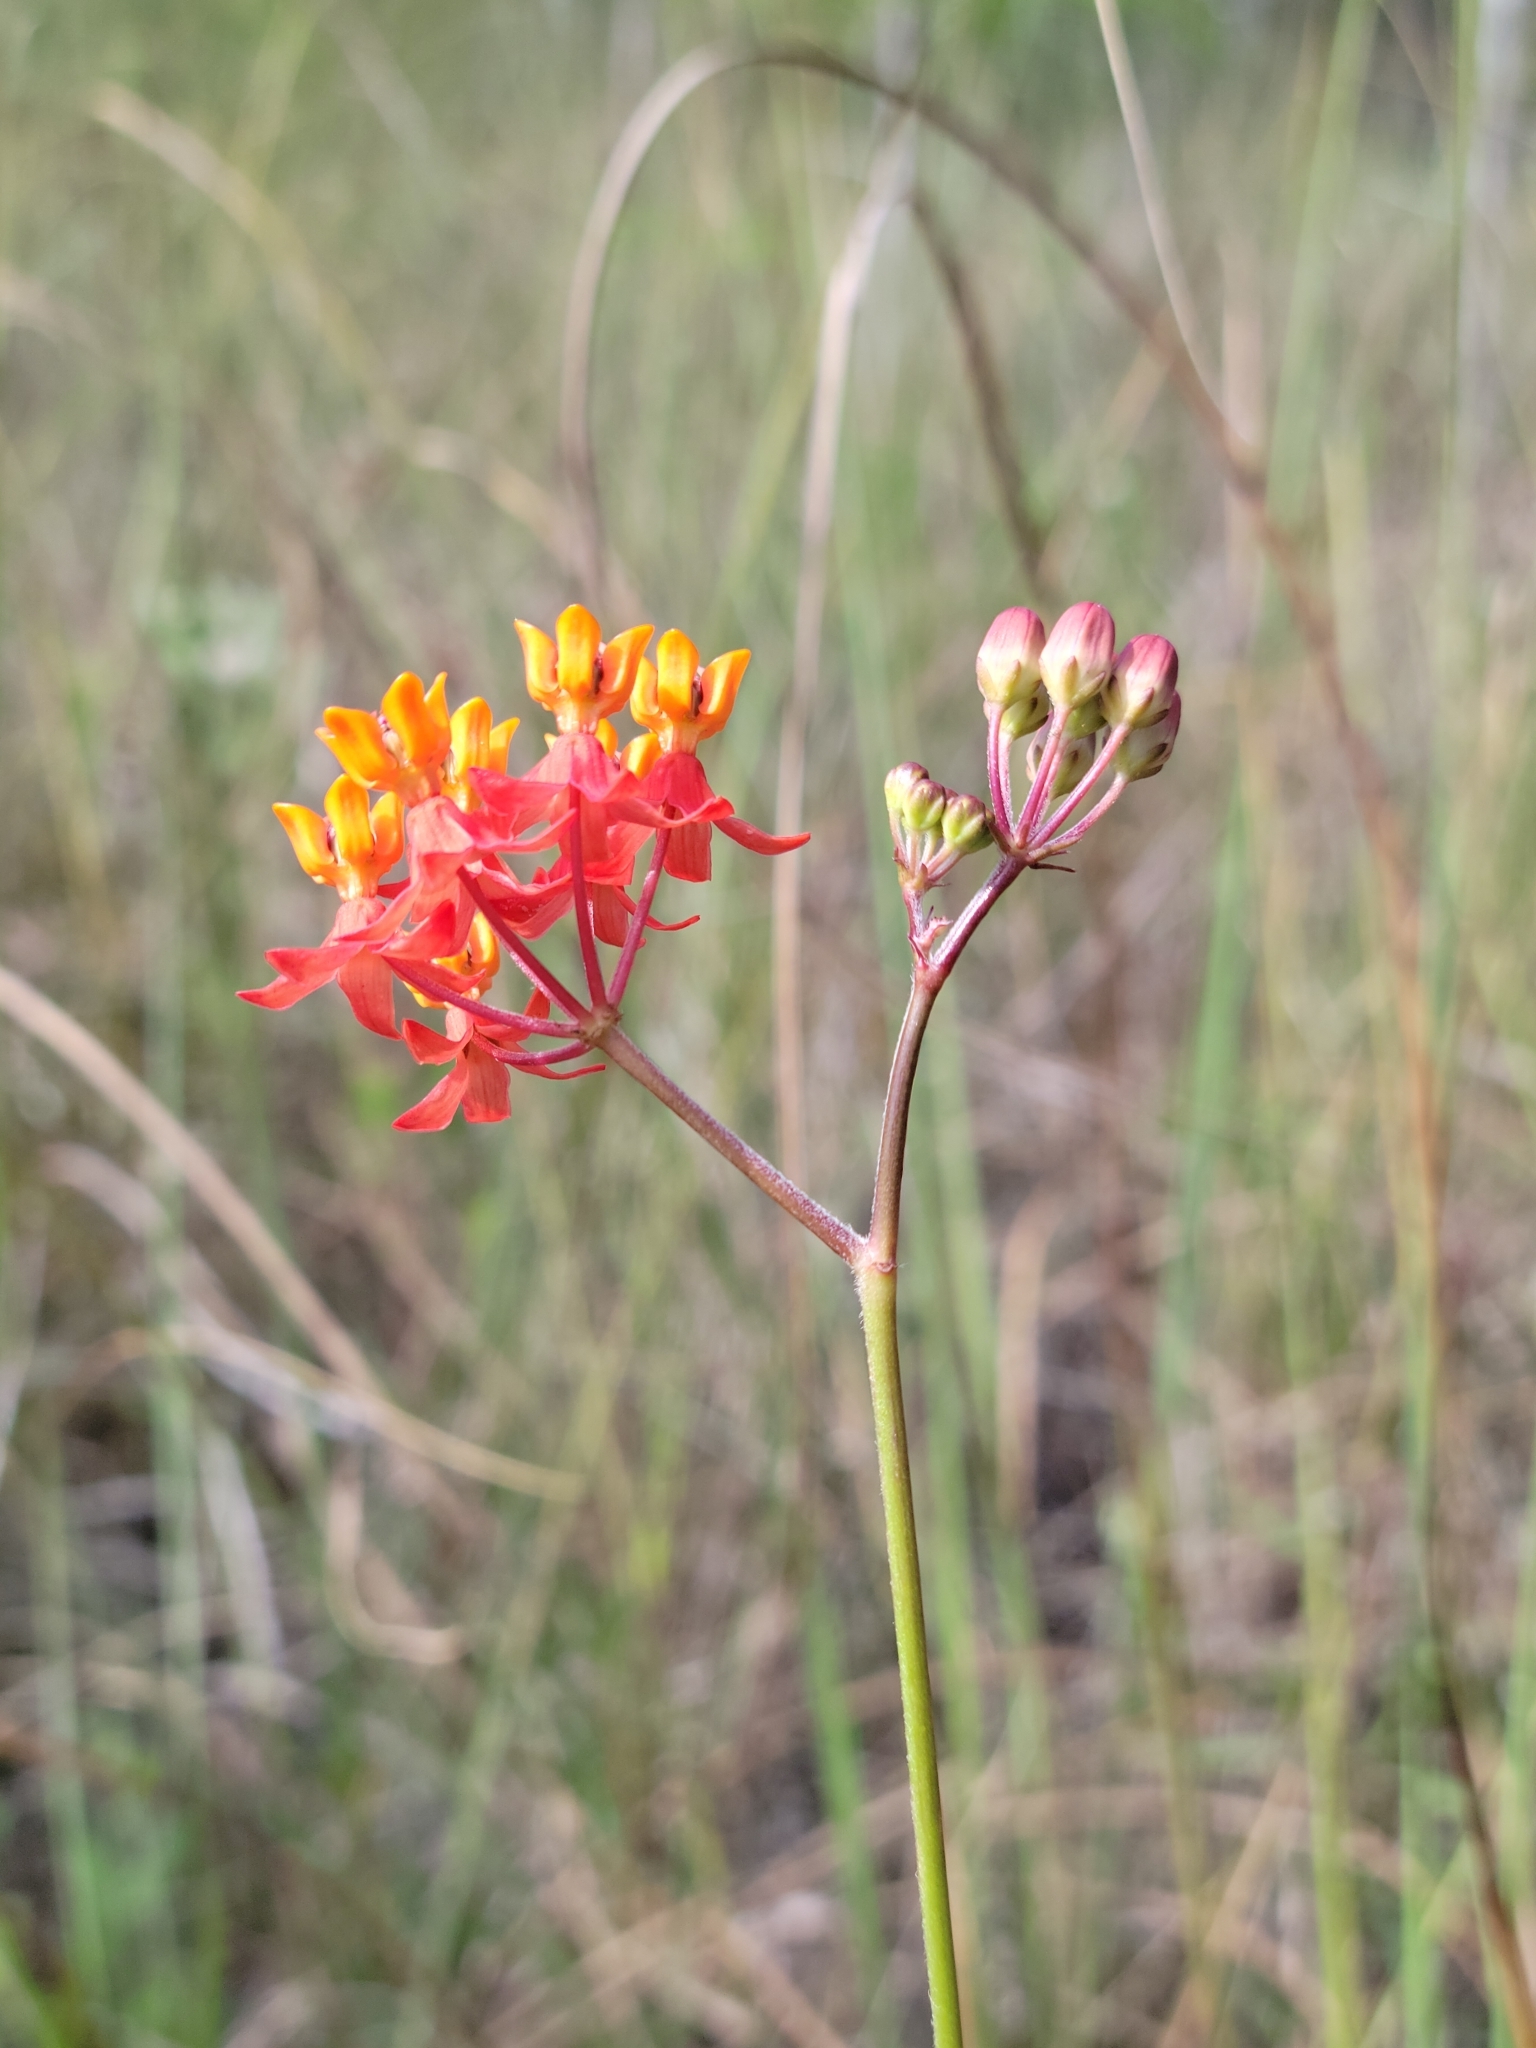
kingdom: Plantae
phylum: Tracheophyta
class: Magnoliopsida
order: Gentianales
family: Apocynaceae
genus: Asclepias
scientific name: Asclepias lanceolata
